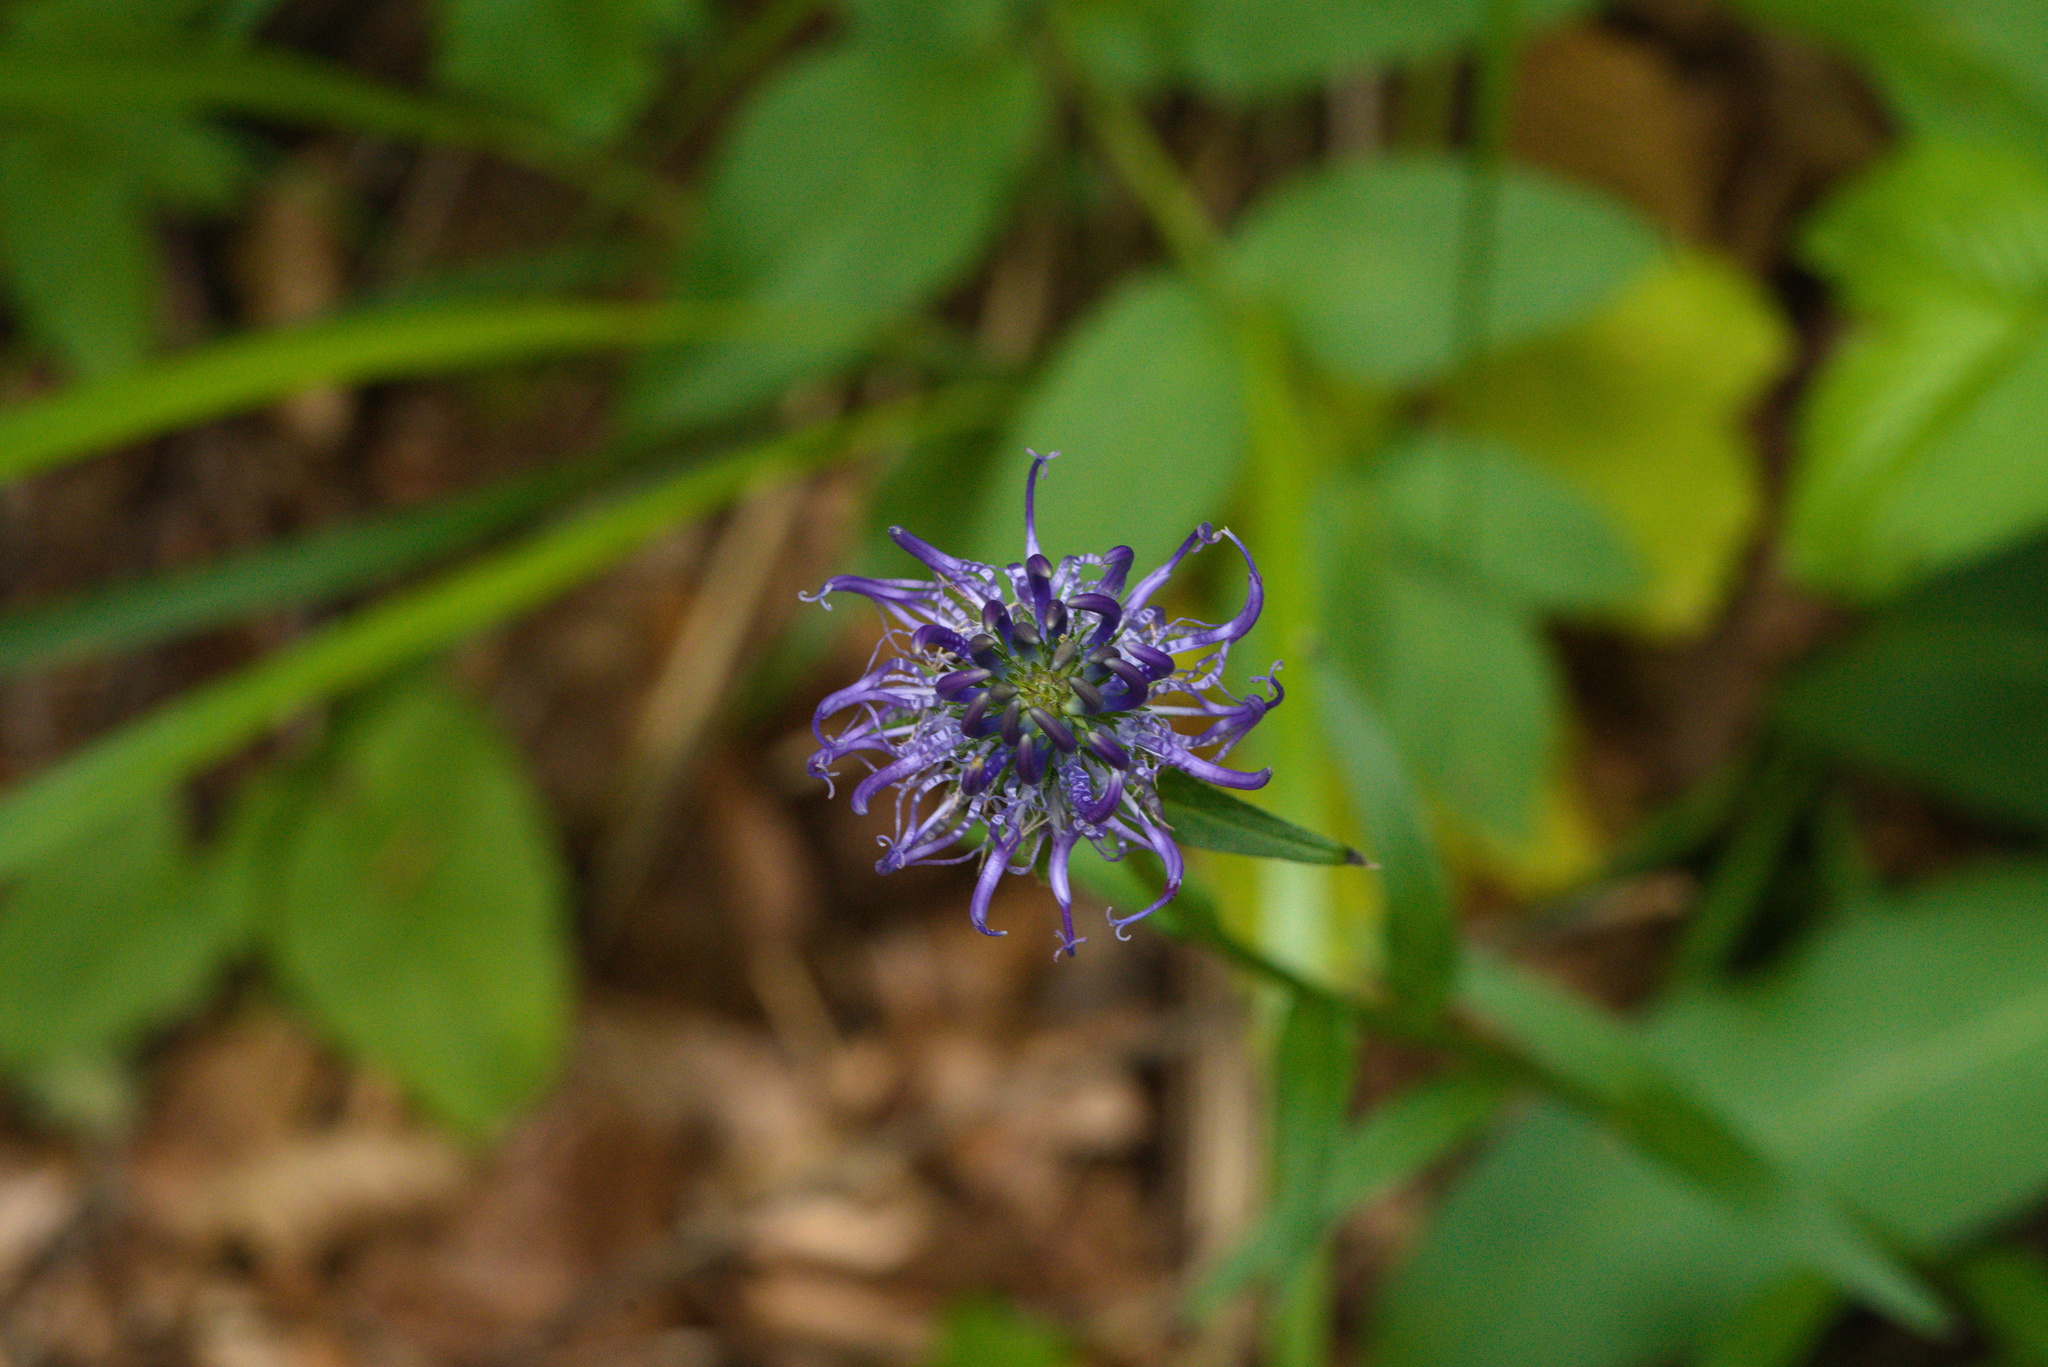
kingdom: Plantae
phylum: Tracheophyta
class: Magnoliopsida
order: Asterales
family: Campanulaceae
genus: Phyteuma
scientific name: Phyteuma orbiculare
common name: Round-headed rampion
